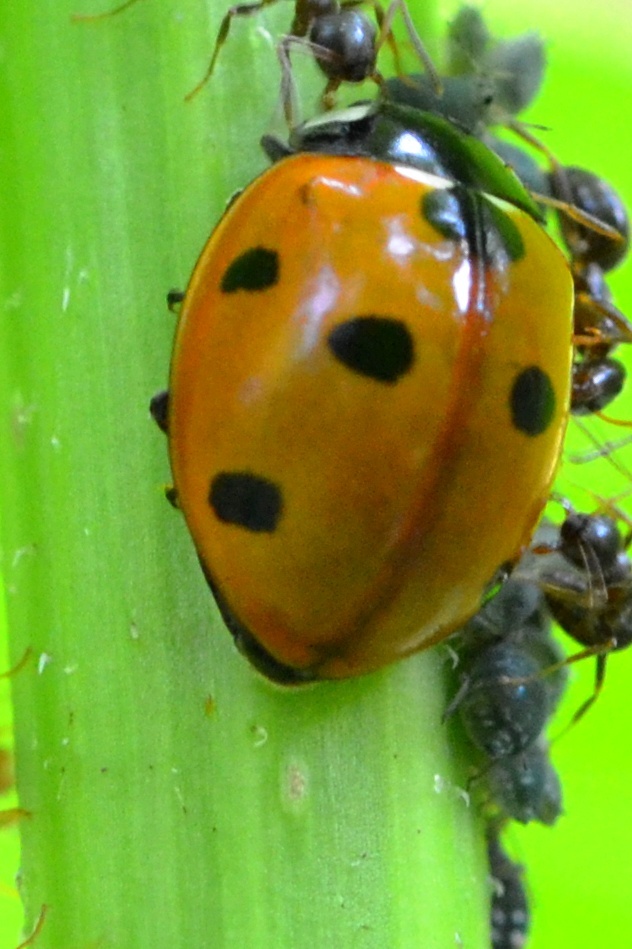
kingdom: Animalia
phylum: Arthropoda
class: Insecta
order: Coleoptera
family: Coccinellidae
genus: Coccinella
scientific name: Coccinella septempunctata
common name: Sevenspotted lady beetle
